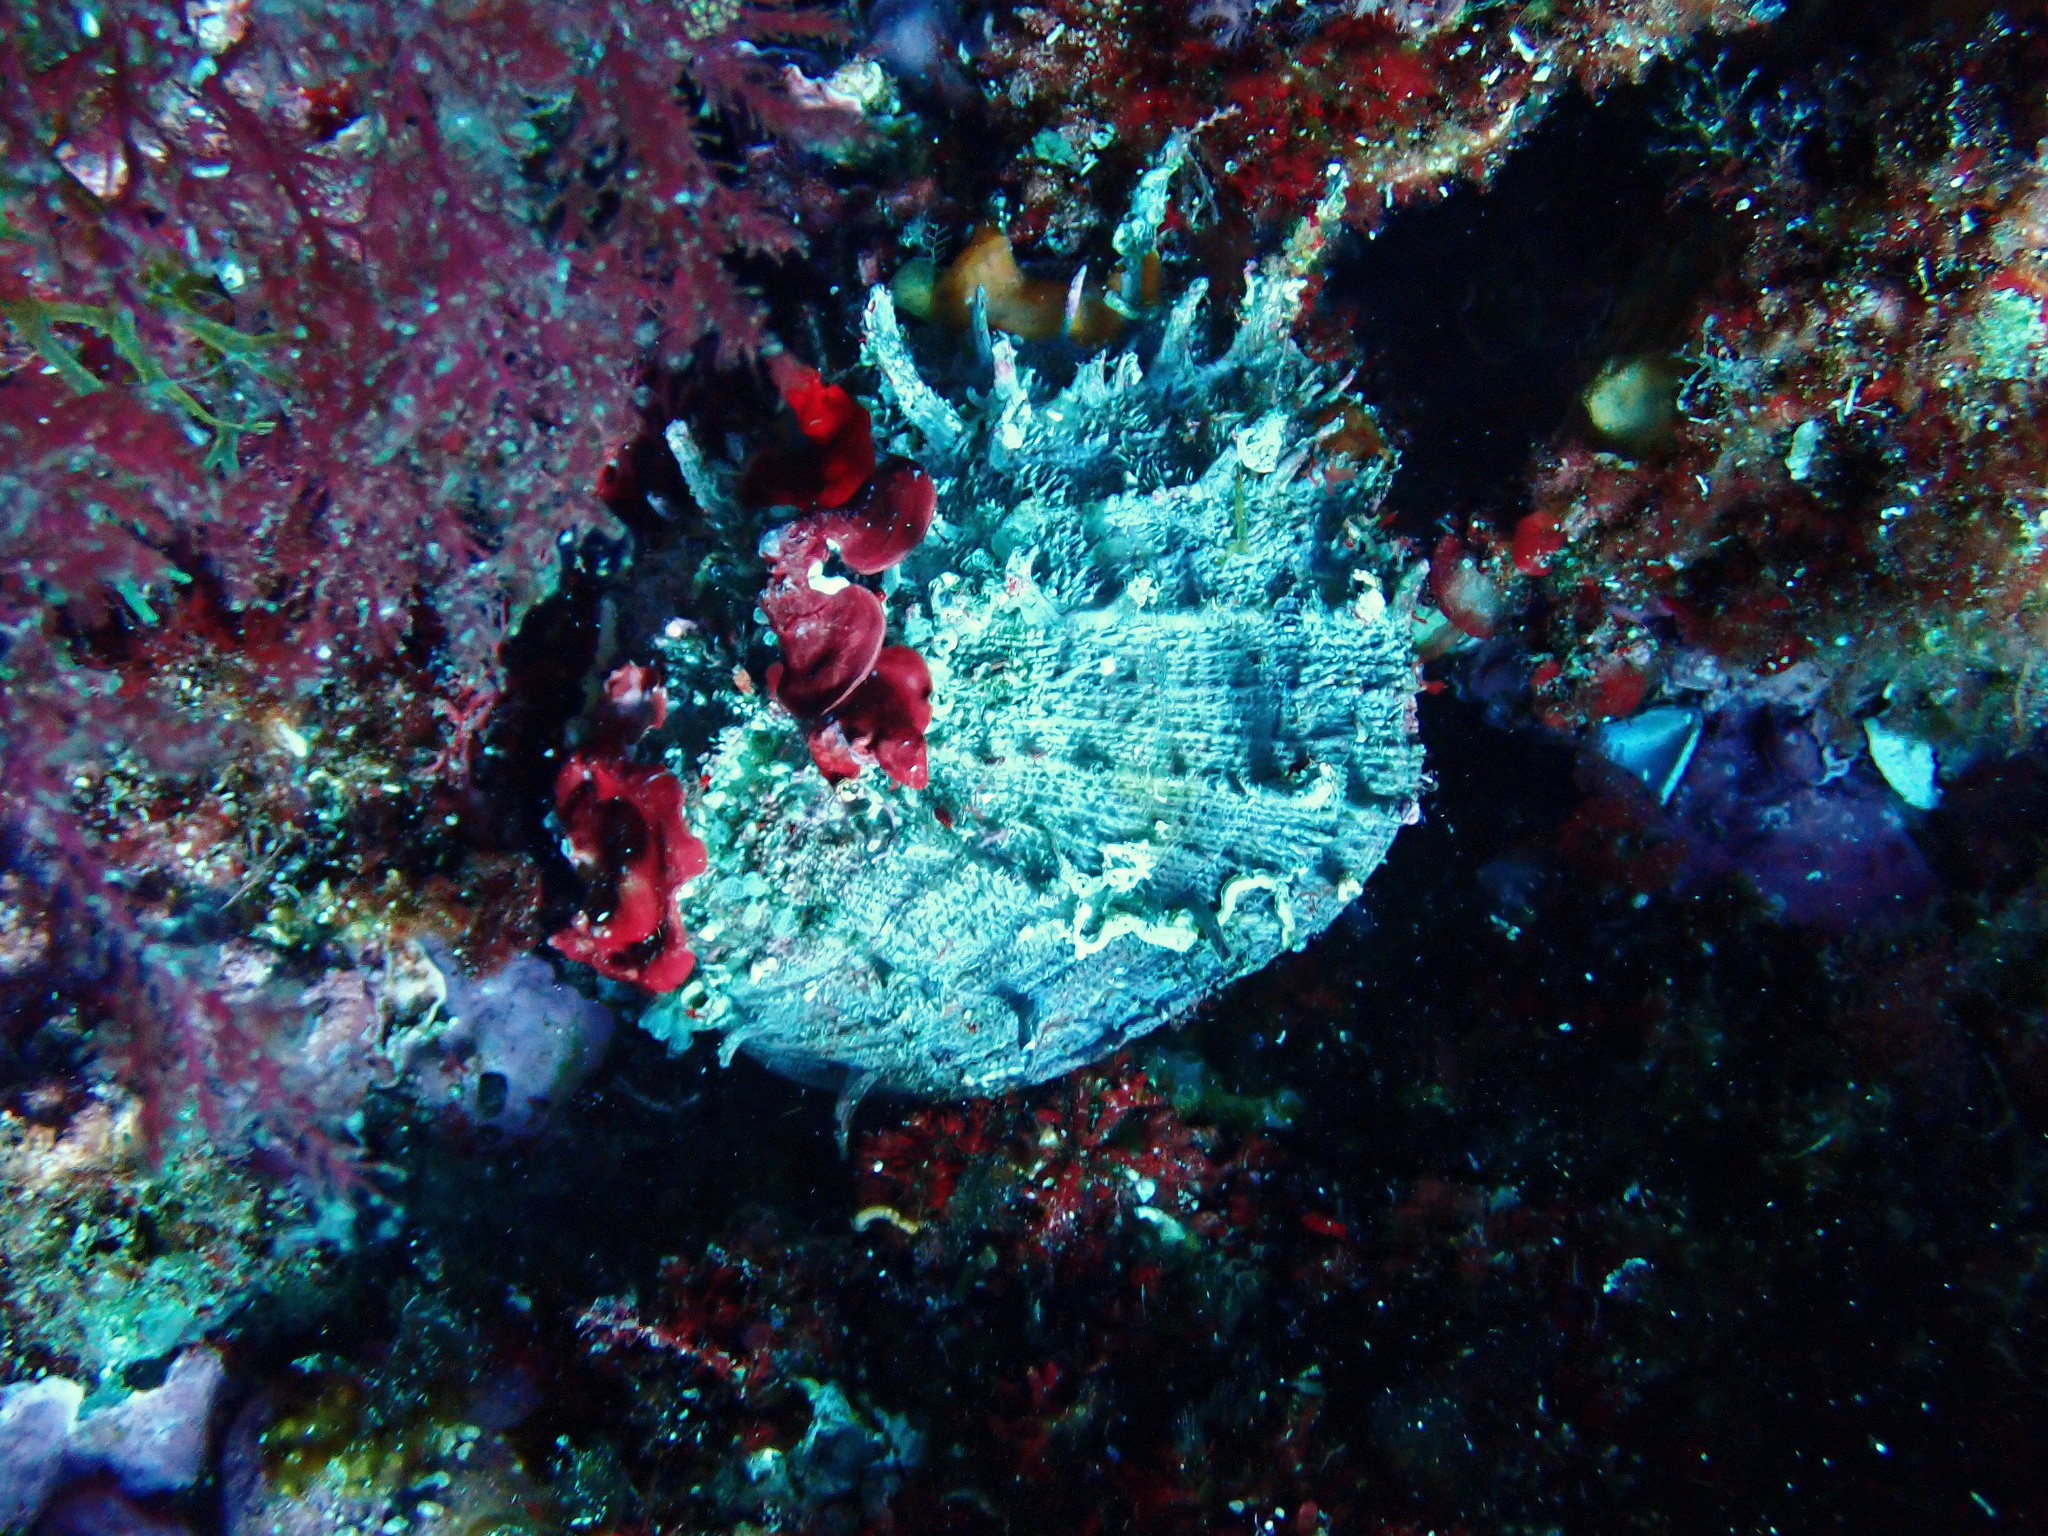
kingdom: Animalia
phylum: Mollusca
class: Bivalvia
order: Pectinida
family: Spondylidae
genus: Spondylus
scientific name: Spondylus gaederopus
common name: European thorny oyster
